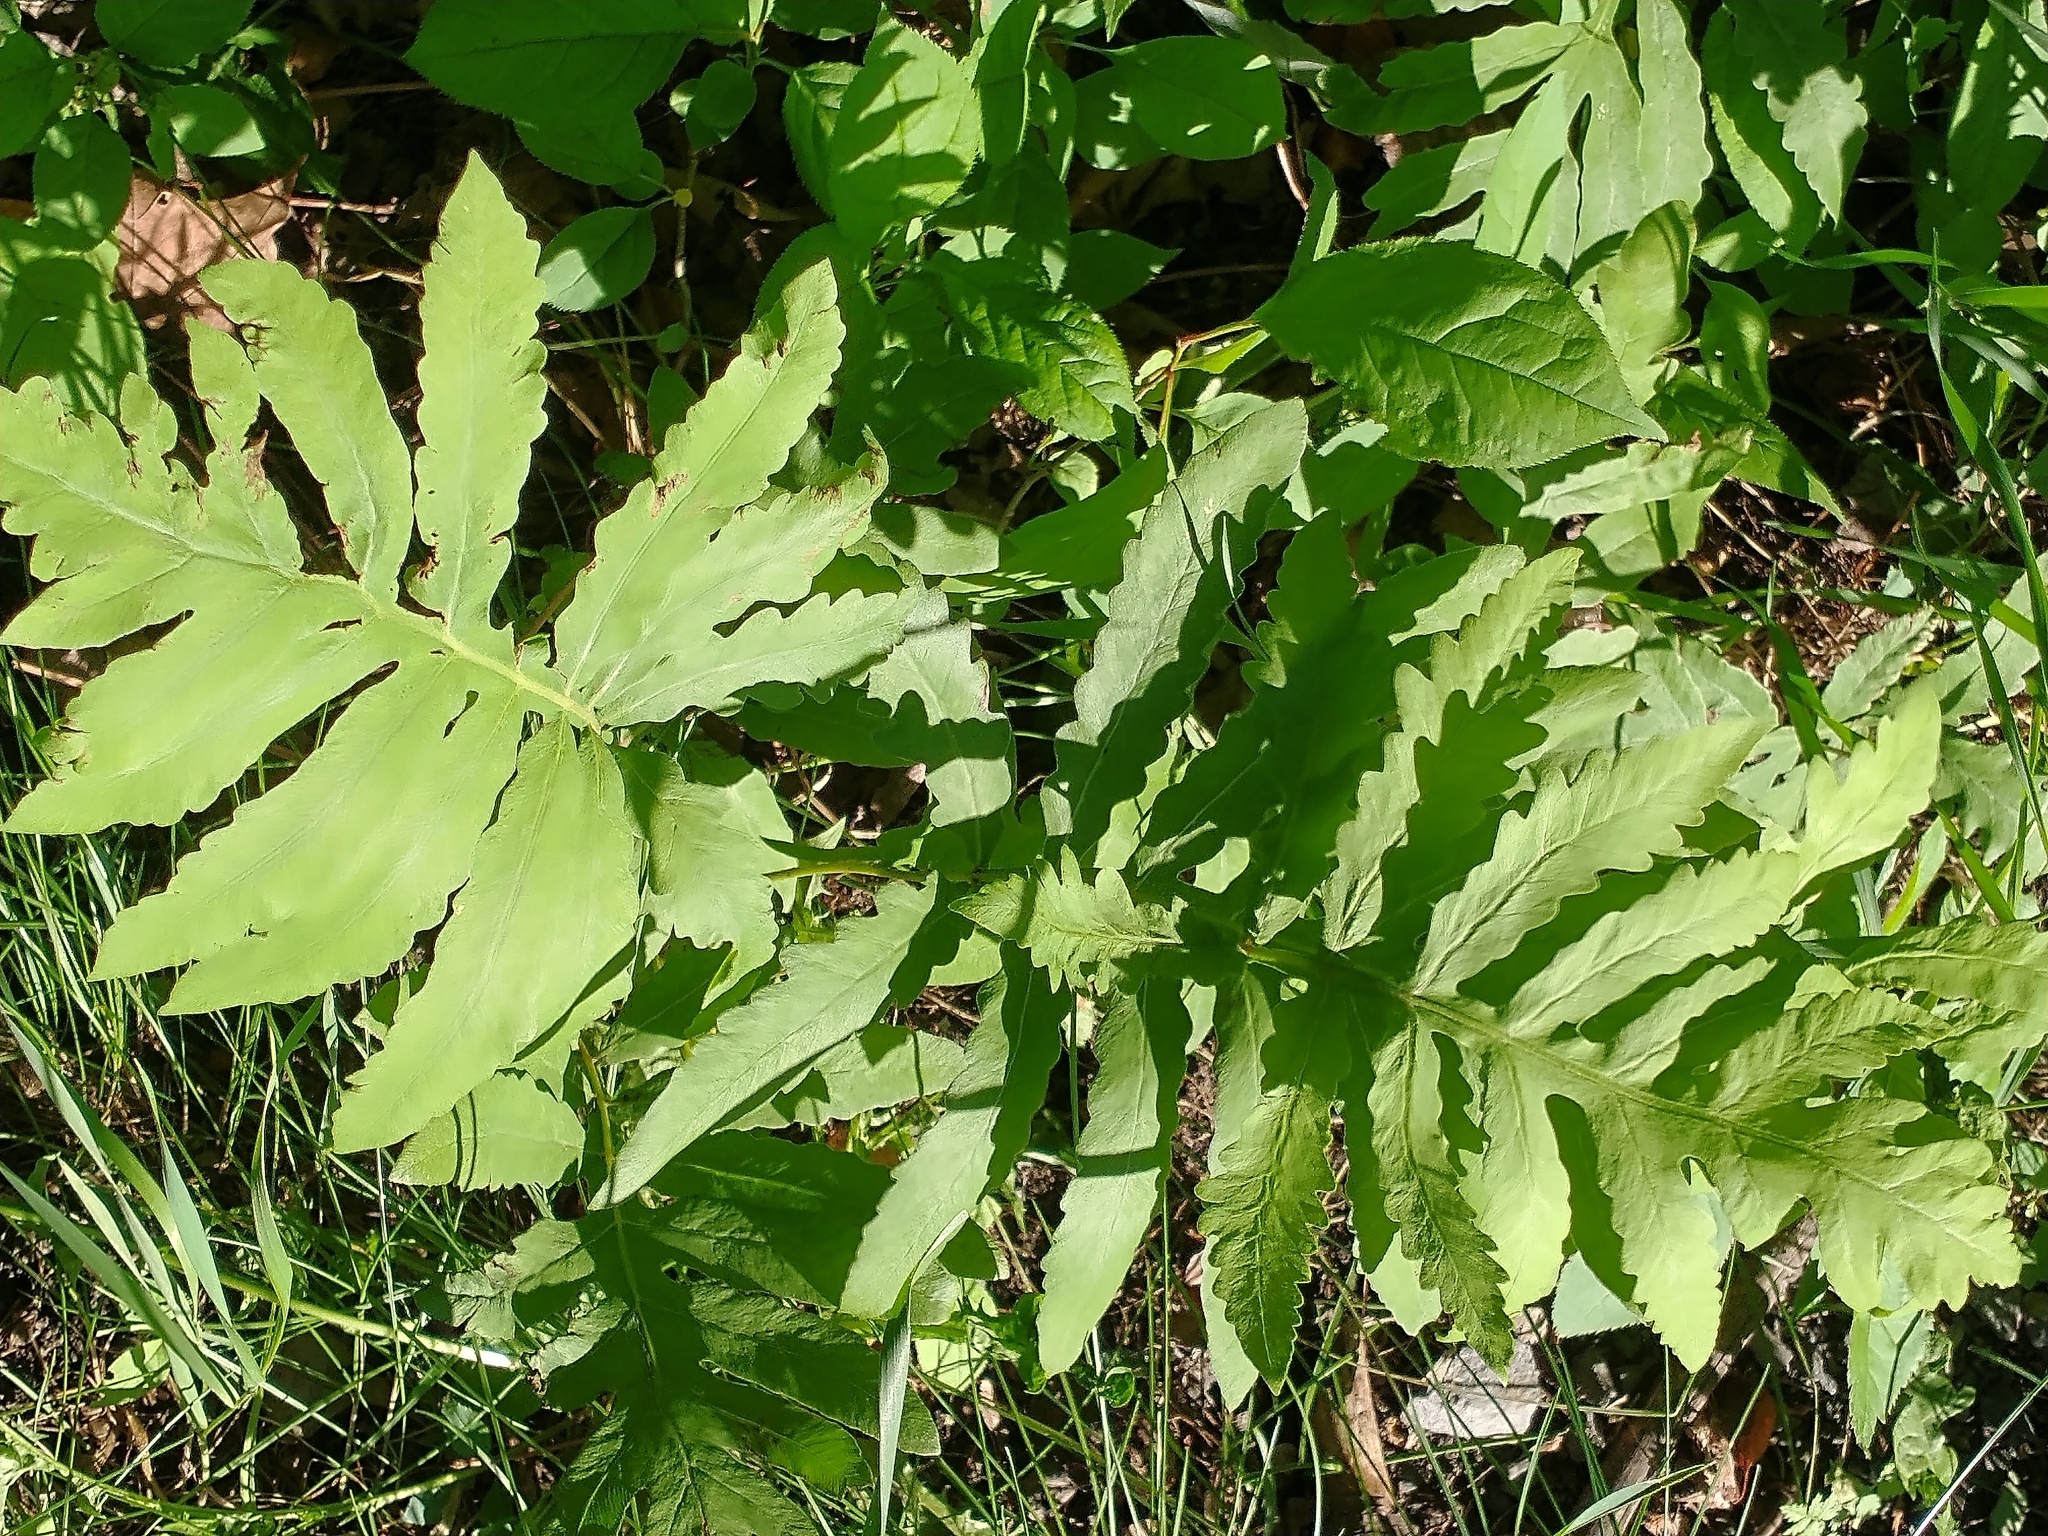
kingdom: Plantae
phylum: Tracheophyta
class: Polypodiopsida
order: Polypodiales
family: Onocleaceae
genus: Onoclea
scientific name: Onoclea sensibilis
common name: Sensitive fern
